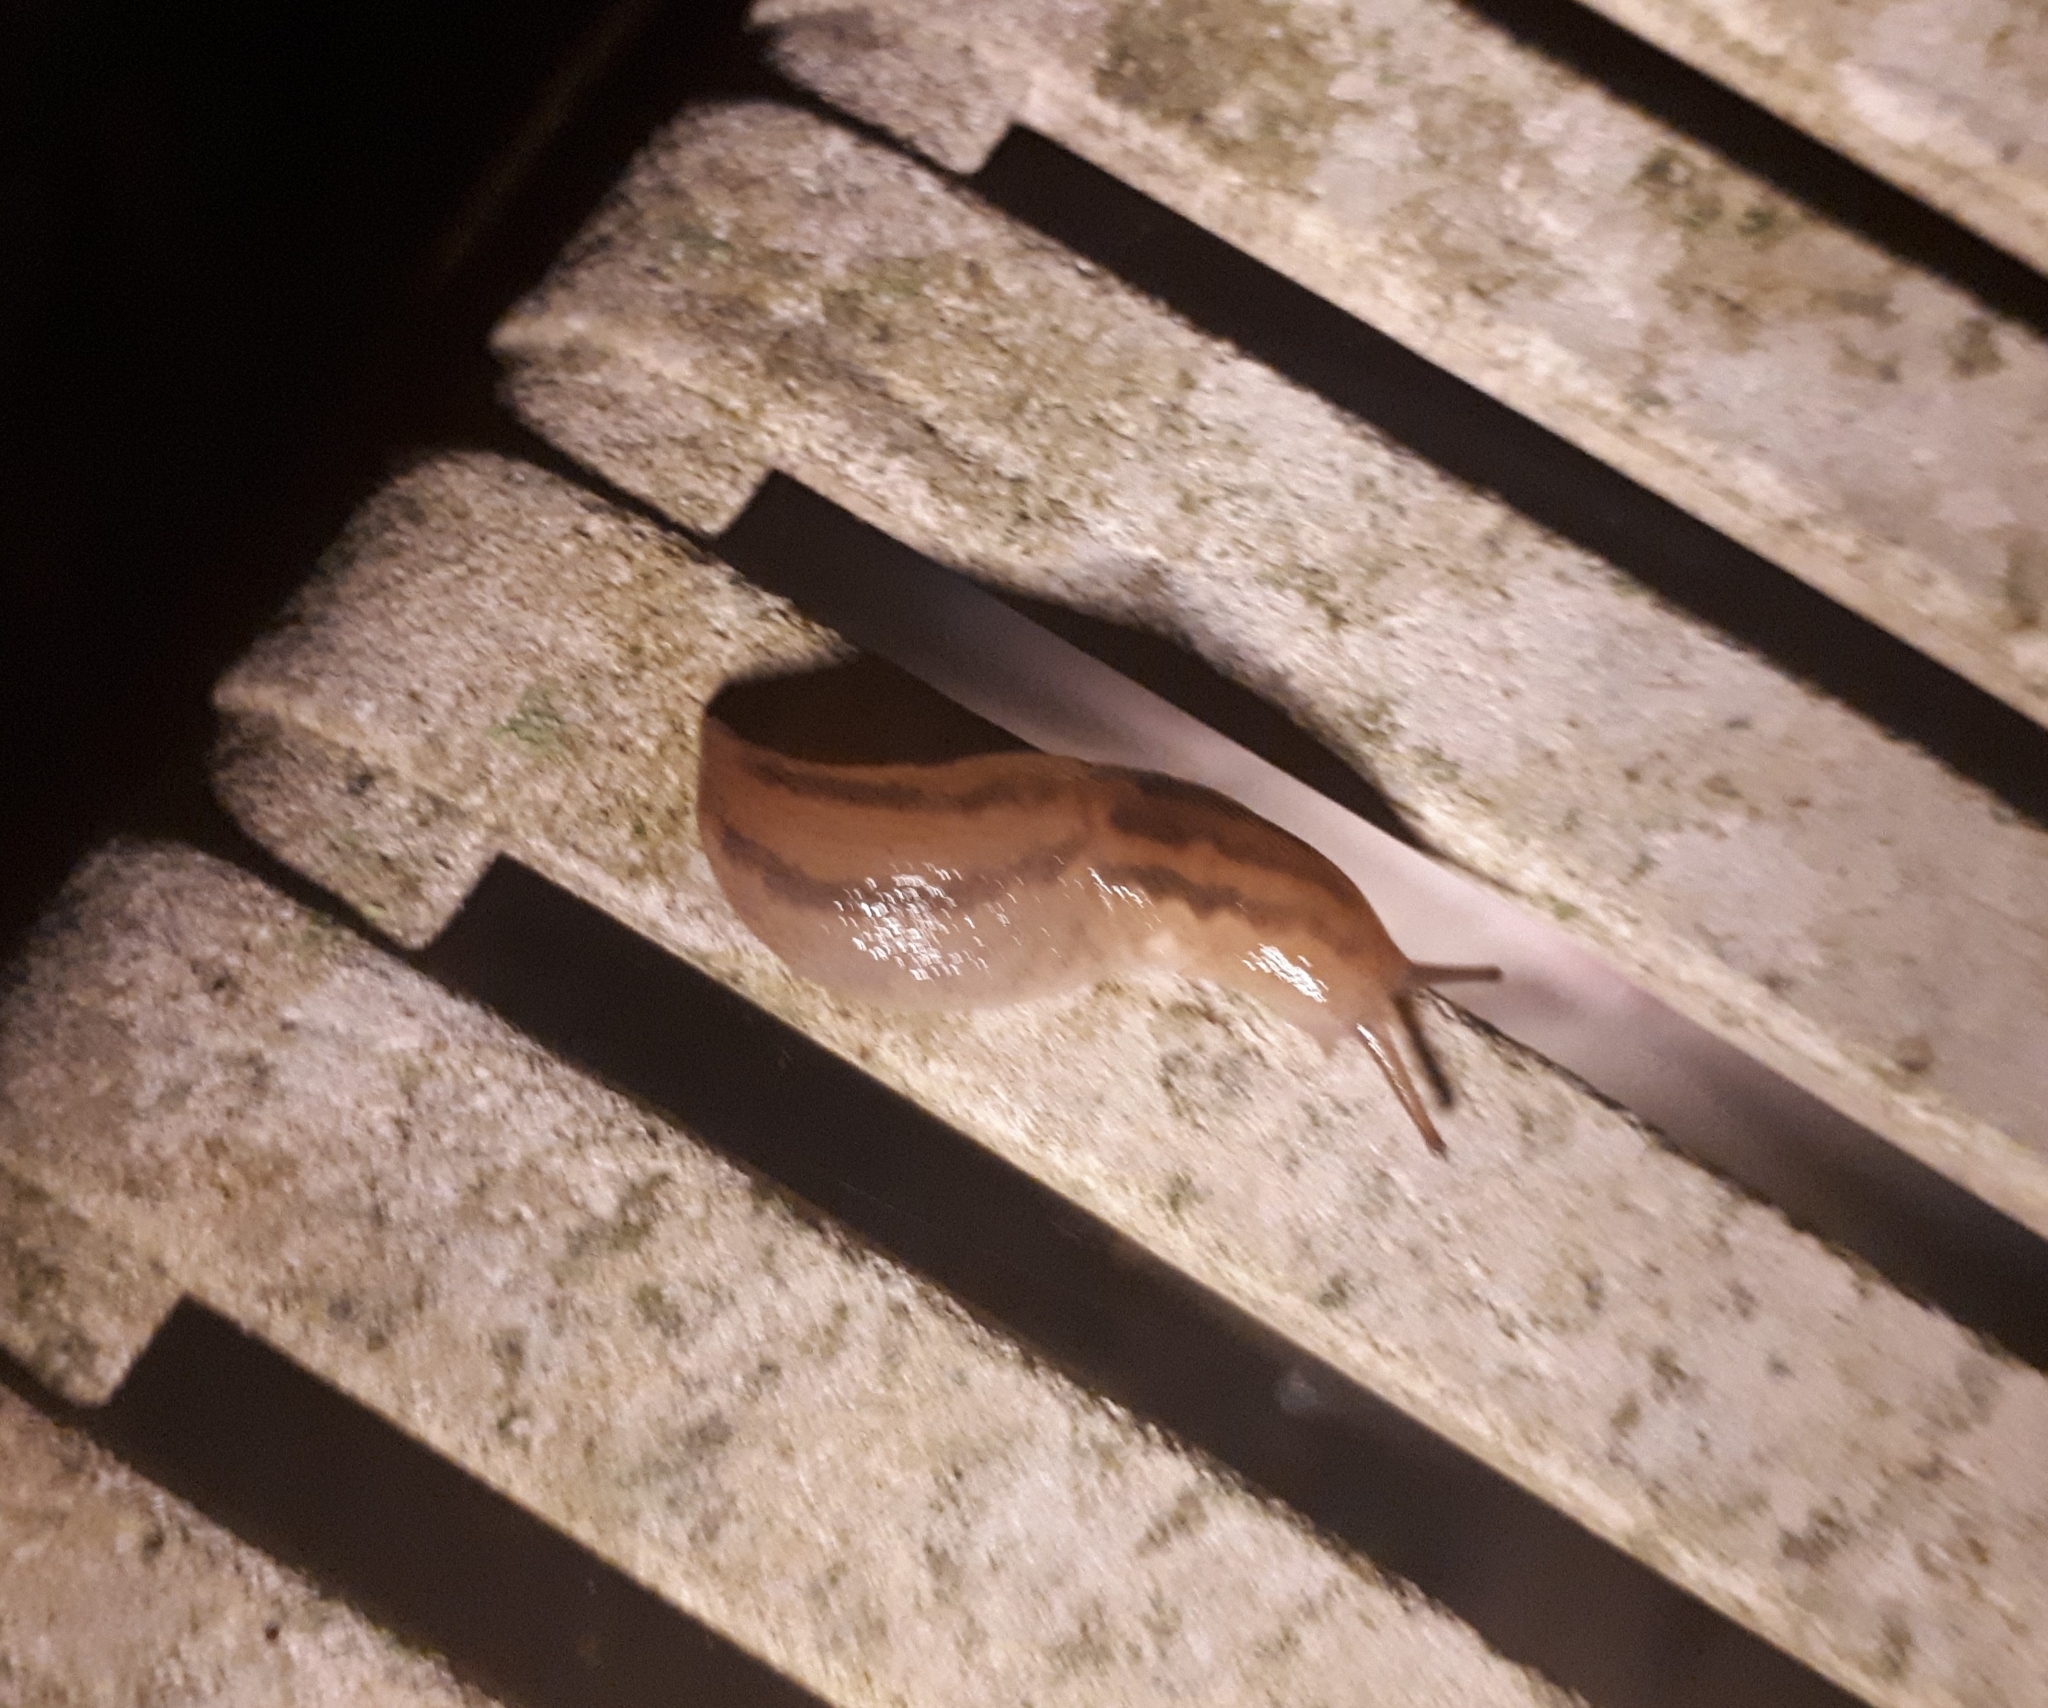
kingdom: Animalia
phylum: Mollusca
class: Gastropoda
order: Stylommatophora
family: Limacidae
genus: Ambigolimax
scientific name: Ambigolimax
